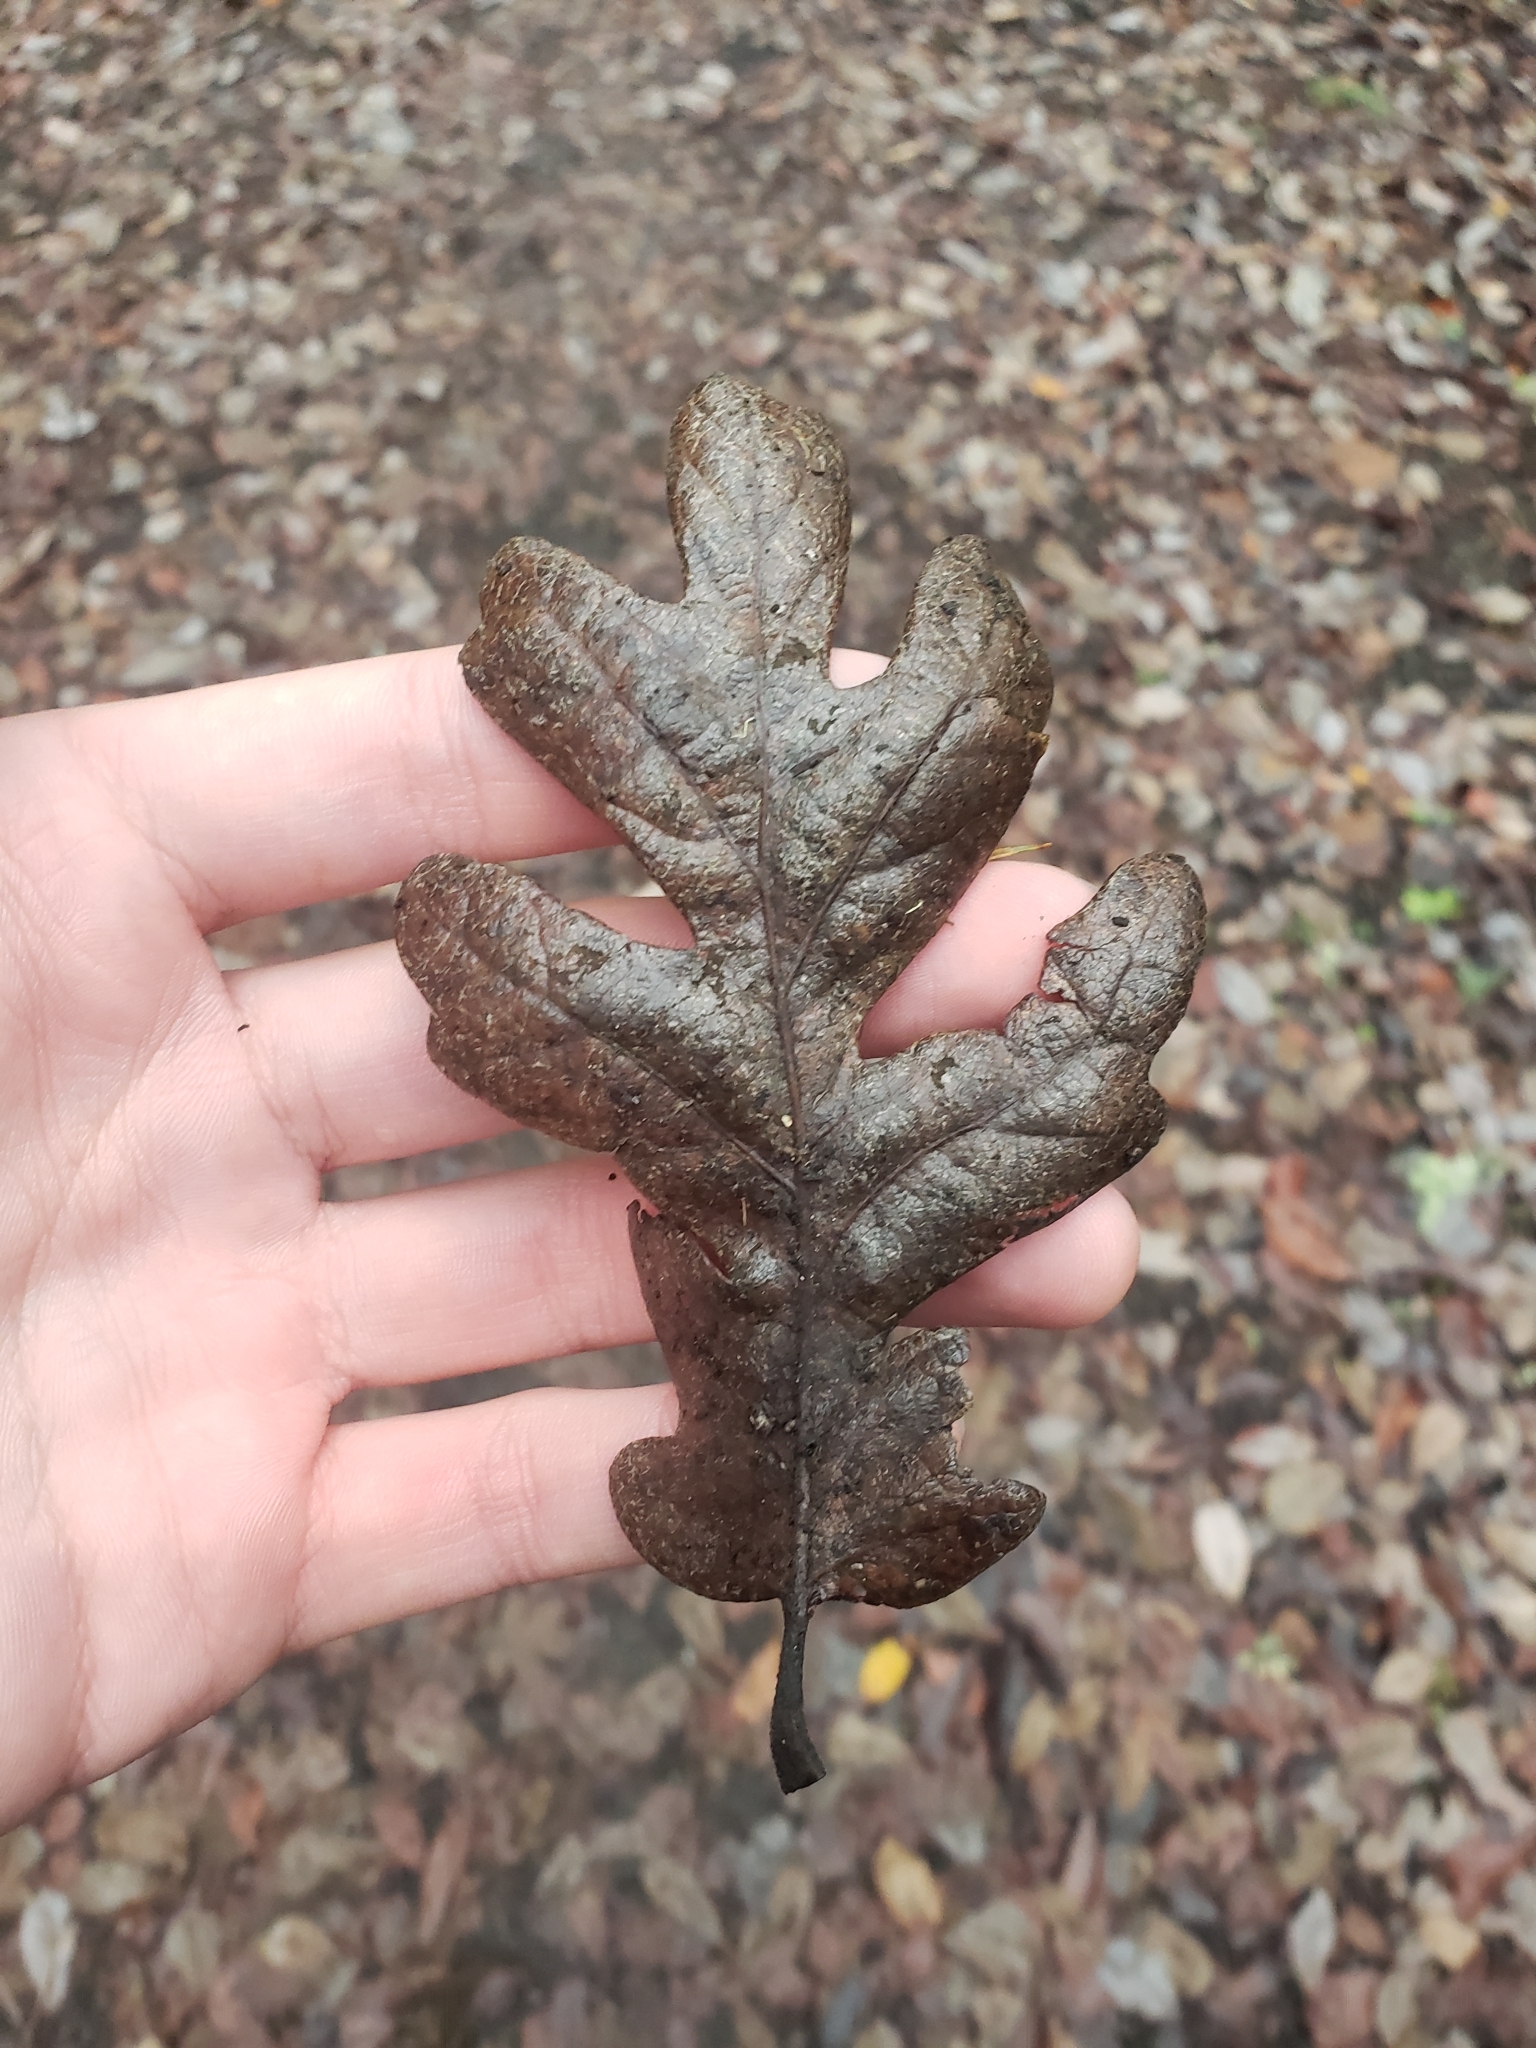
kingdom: Plantae
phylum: Tracheophyta
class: Magnoliopsida
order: Fagales
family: Fagaceae
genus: Quercus
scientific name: Quercus garryana
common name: Garry oak
